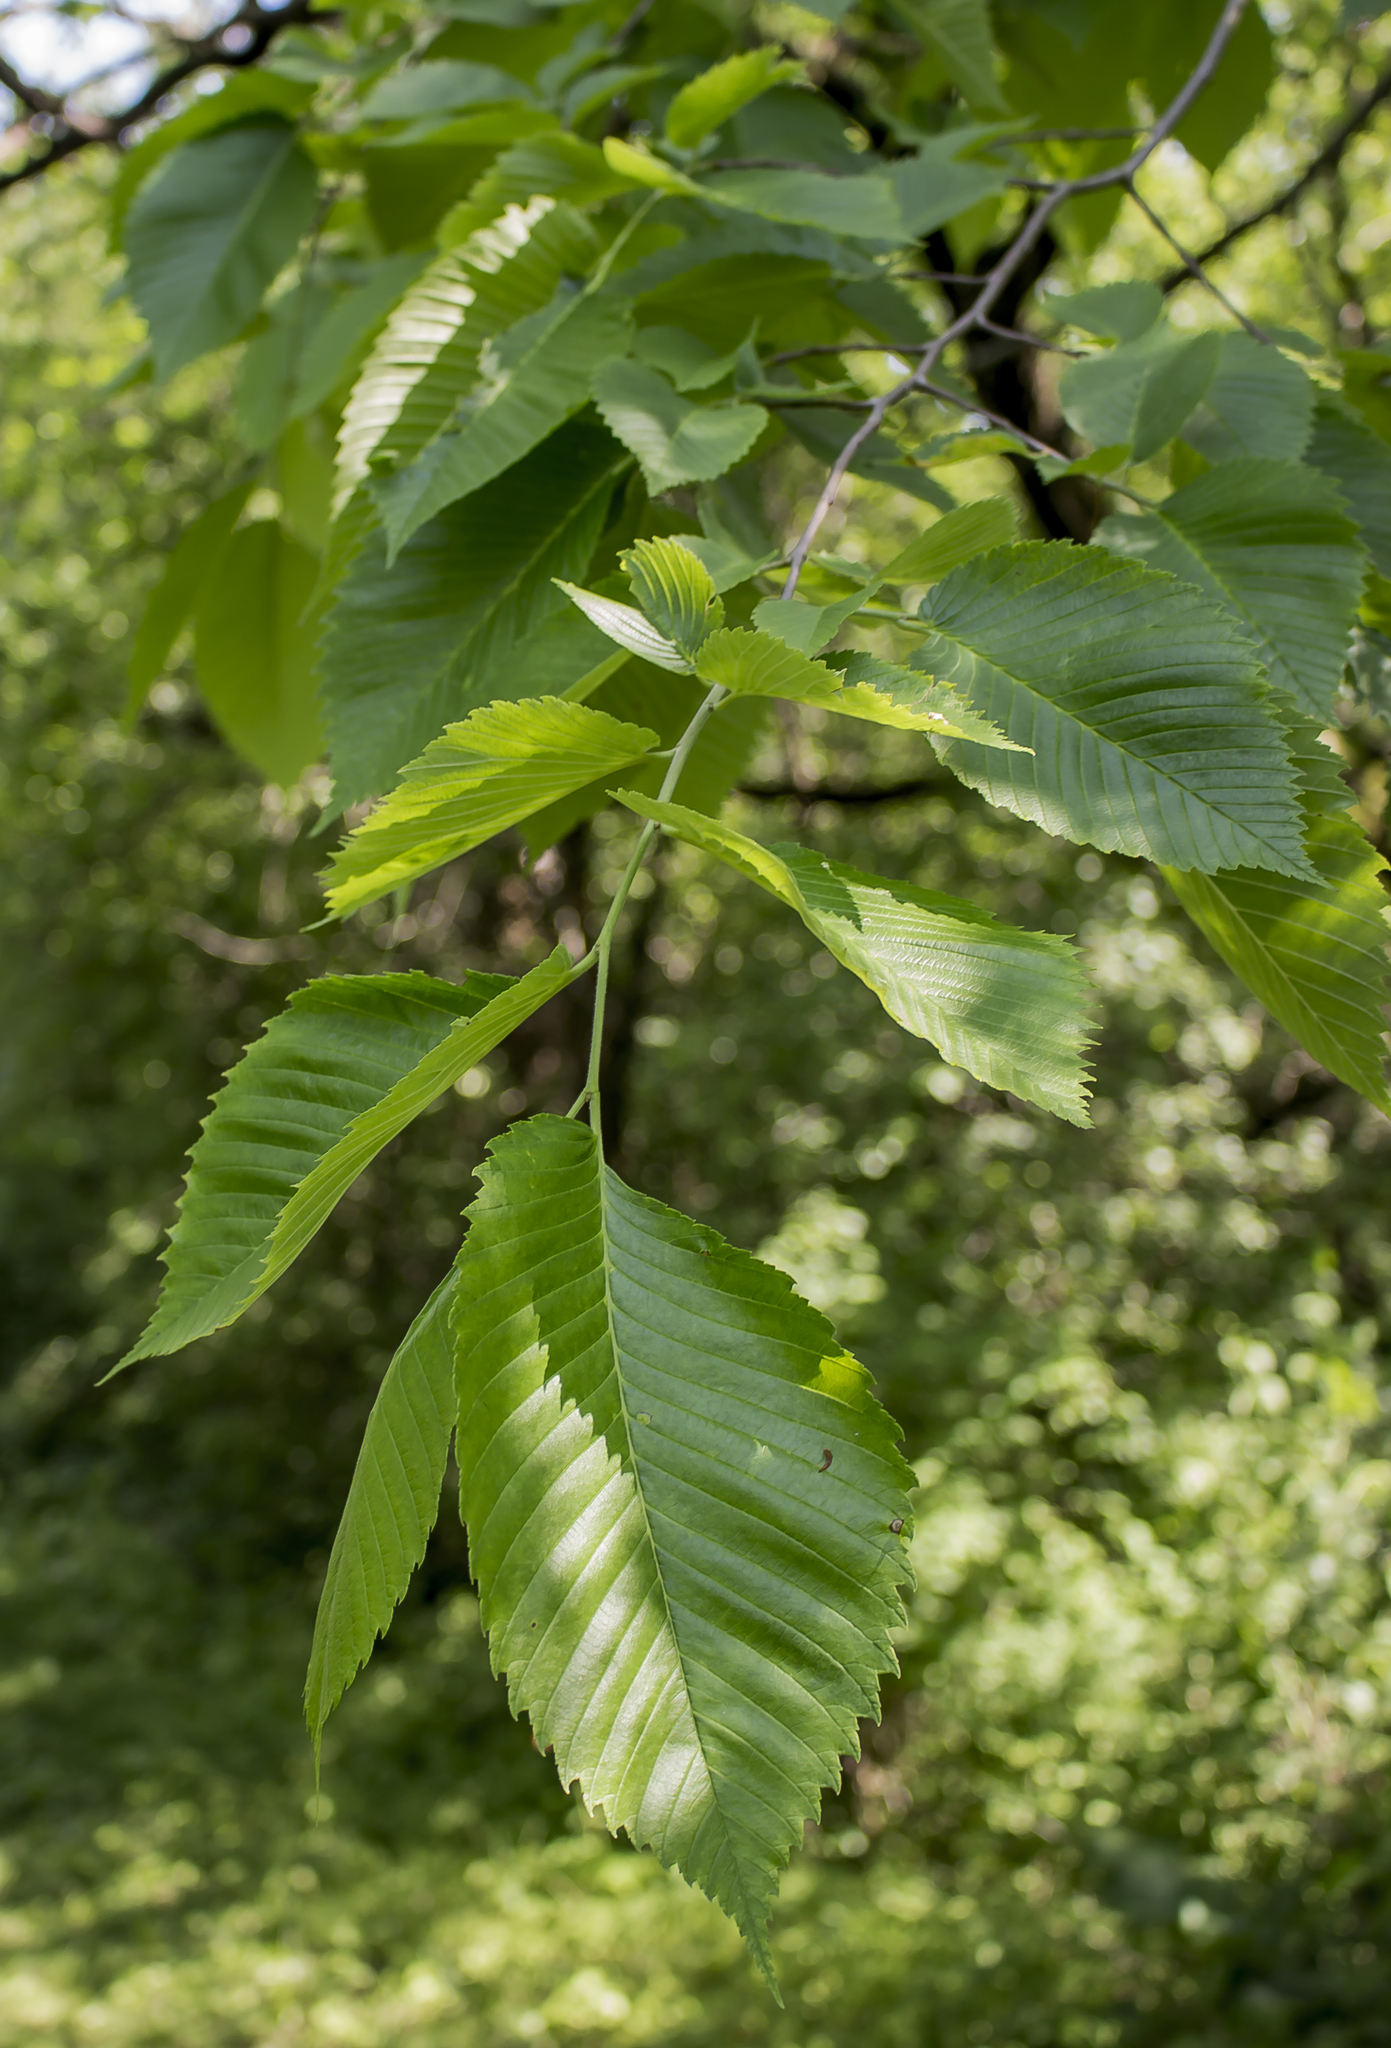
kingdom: Plantae
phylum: Tracheophyta
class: Magnoliopsida
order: Rosales
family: Ulmaceae
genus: Ulmus
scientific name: Ulmus americana
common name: American elm
